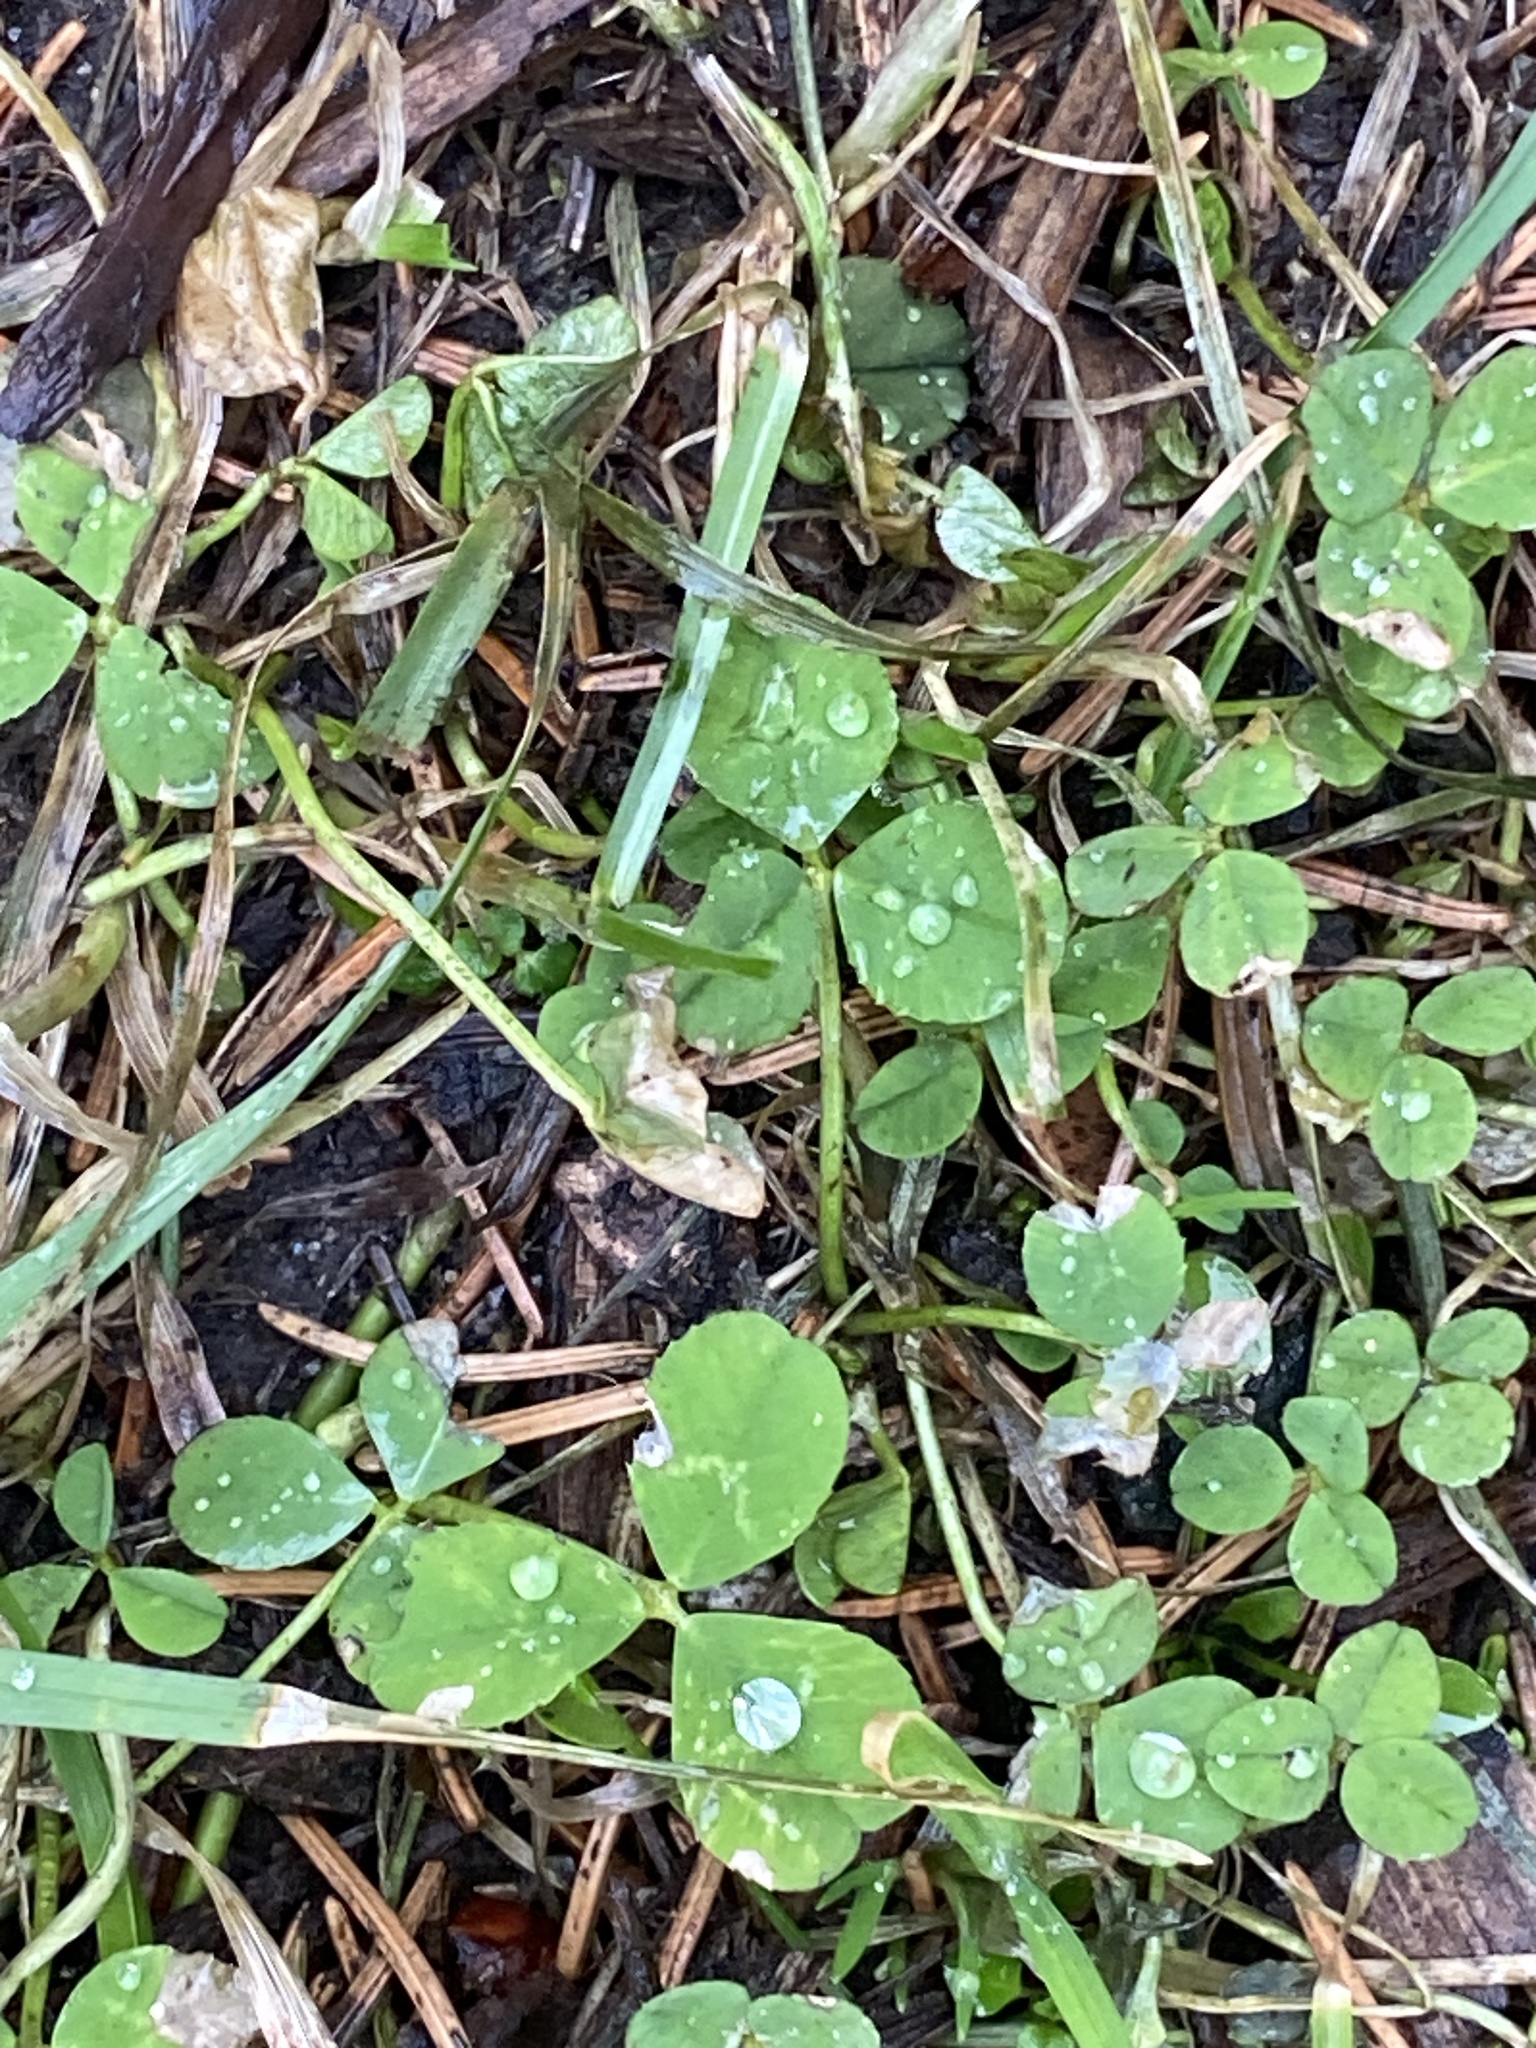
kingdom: Plantae
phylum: Tracheophyta
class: Magnoliopsida
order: Fabales
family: Fabaceae
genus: Trifolium
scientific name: Trifolium repens
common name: White clover
